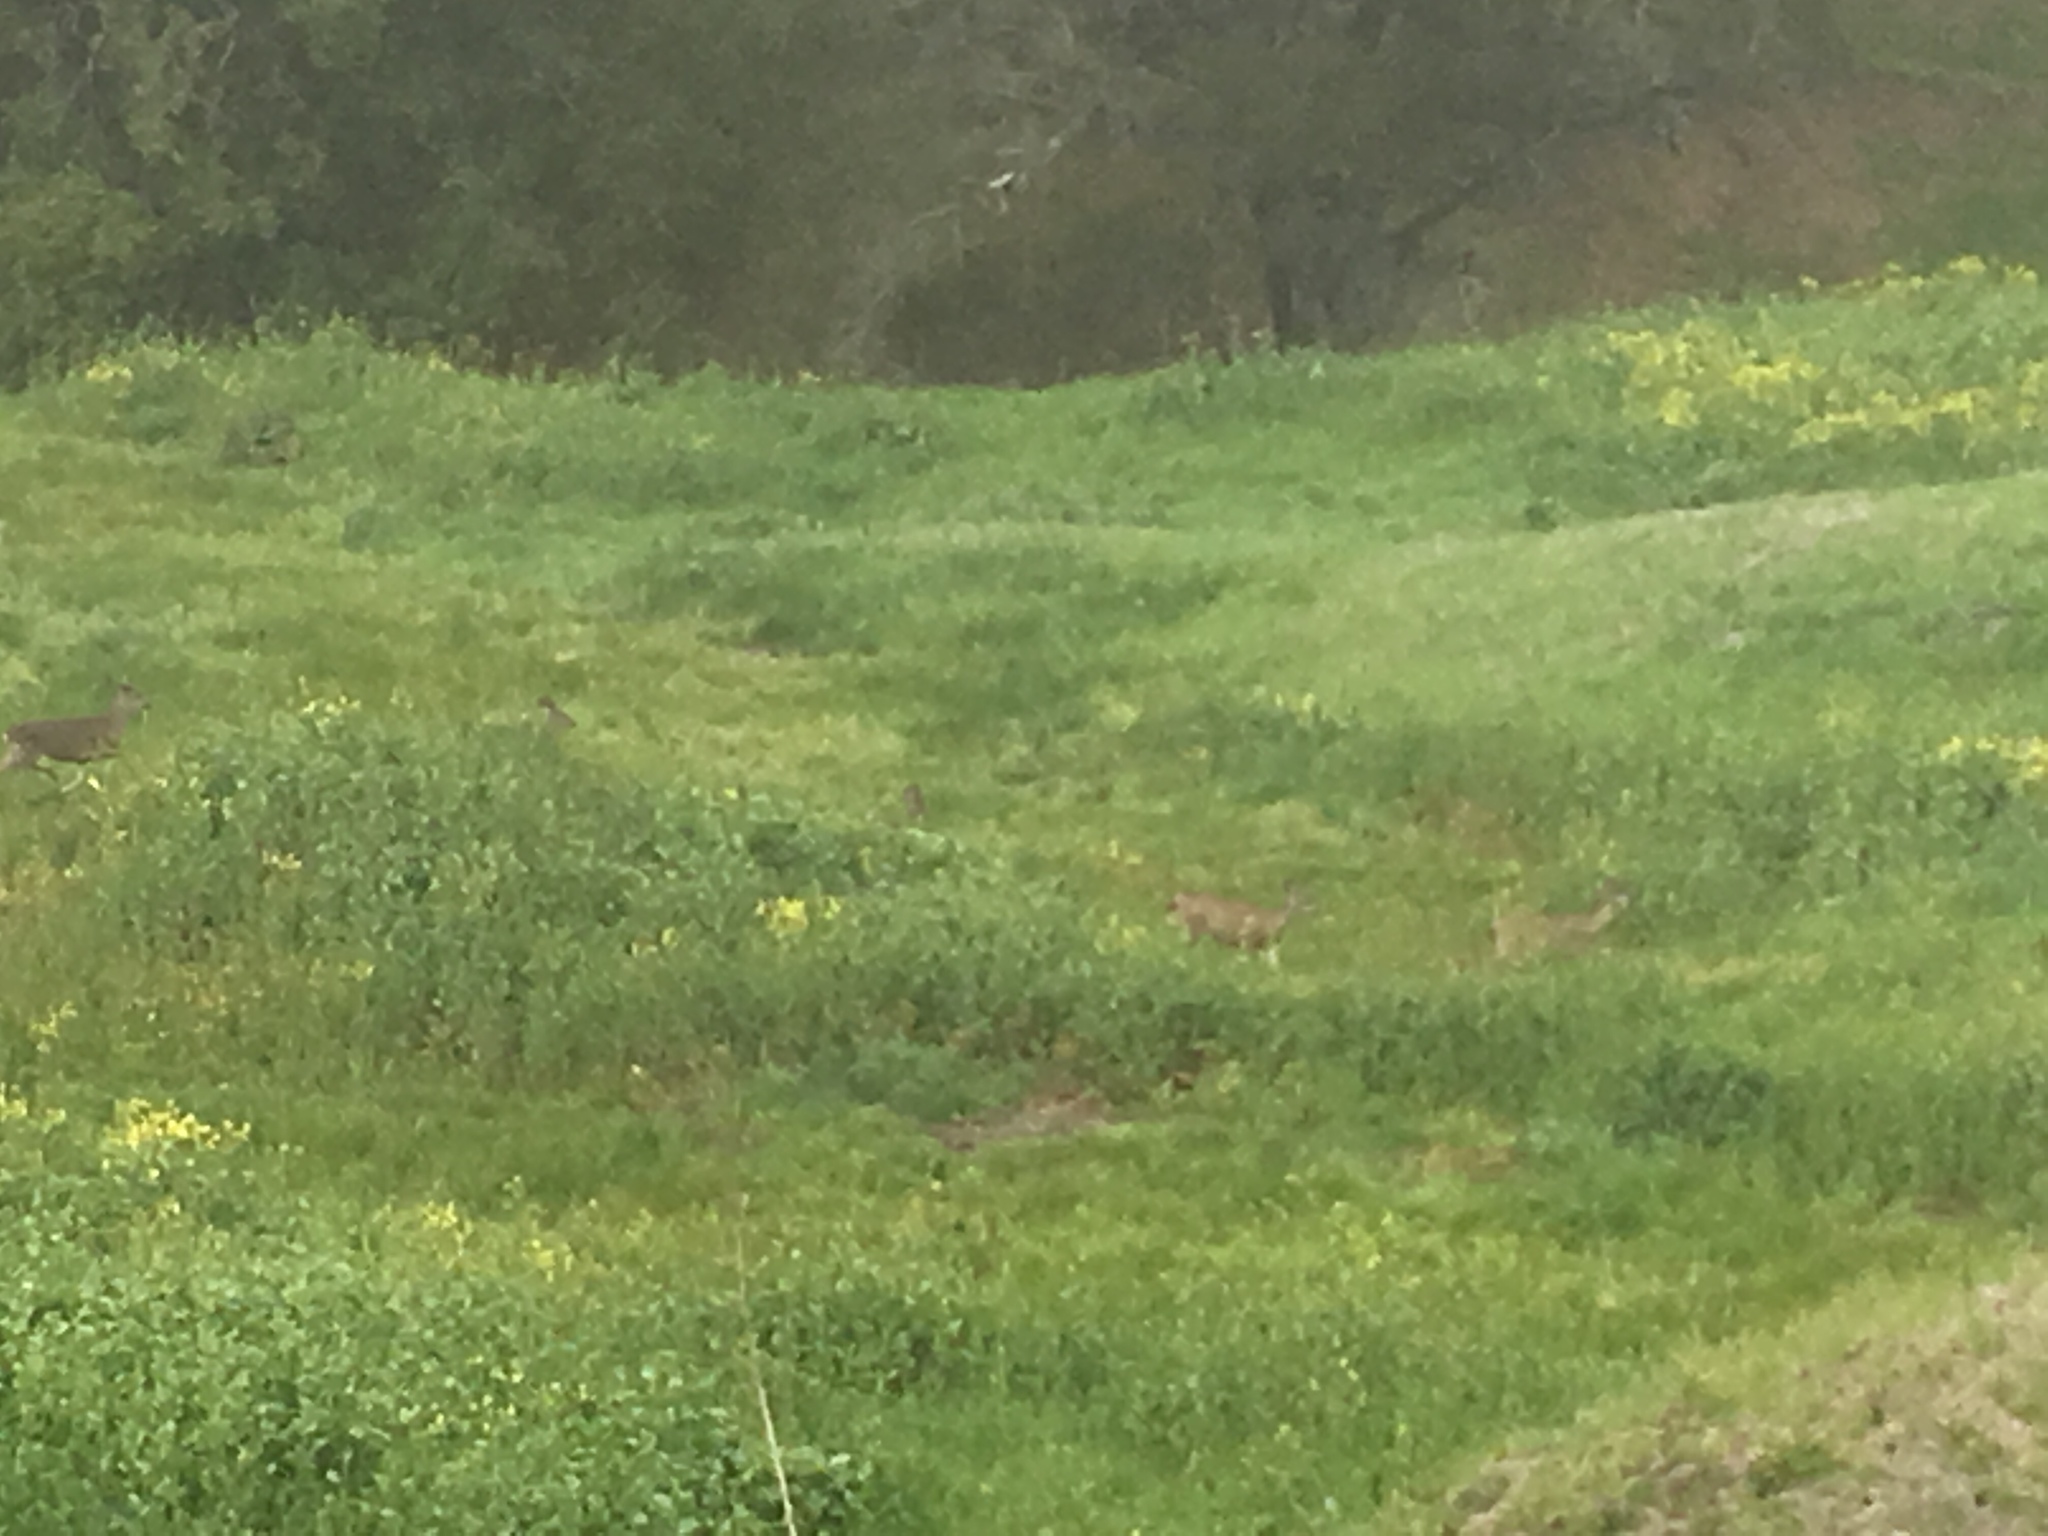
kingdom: Animalia
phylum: Chordata
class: Mammalia
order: Artiodactyla
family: Cervidae
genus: Odocoileus
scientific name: Odocoileus hemionus
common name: Mule deer
